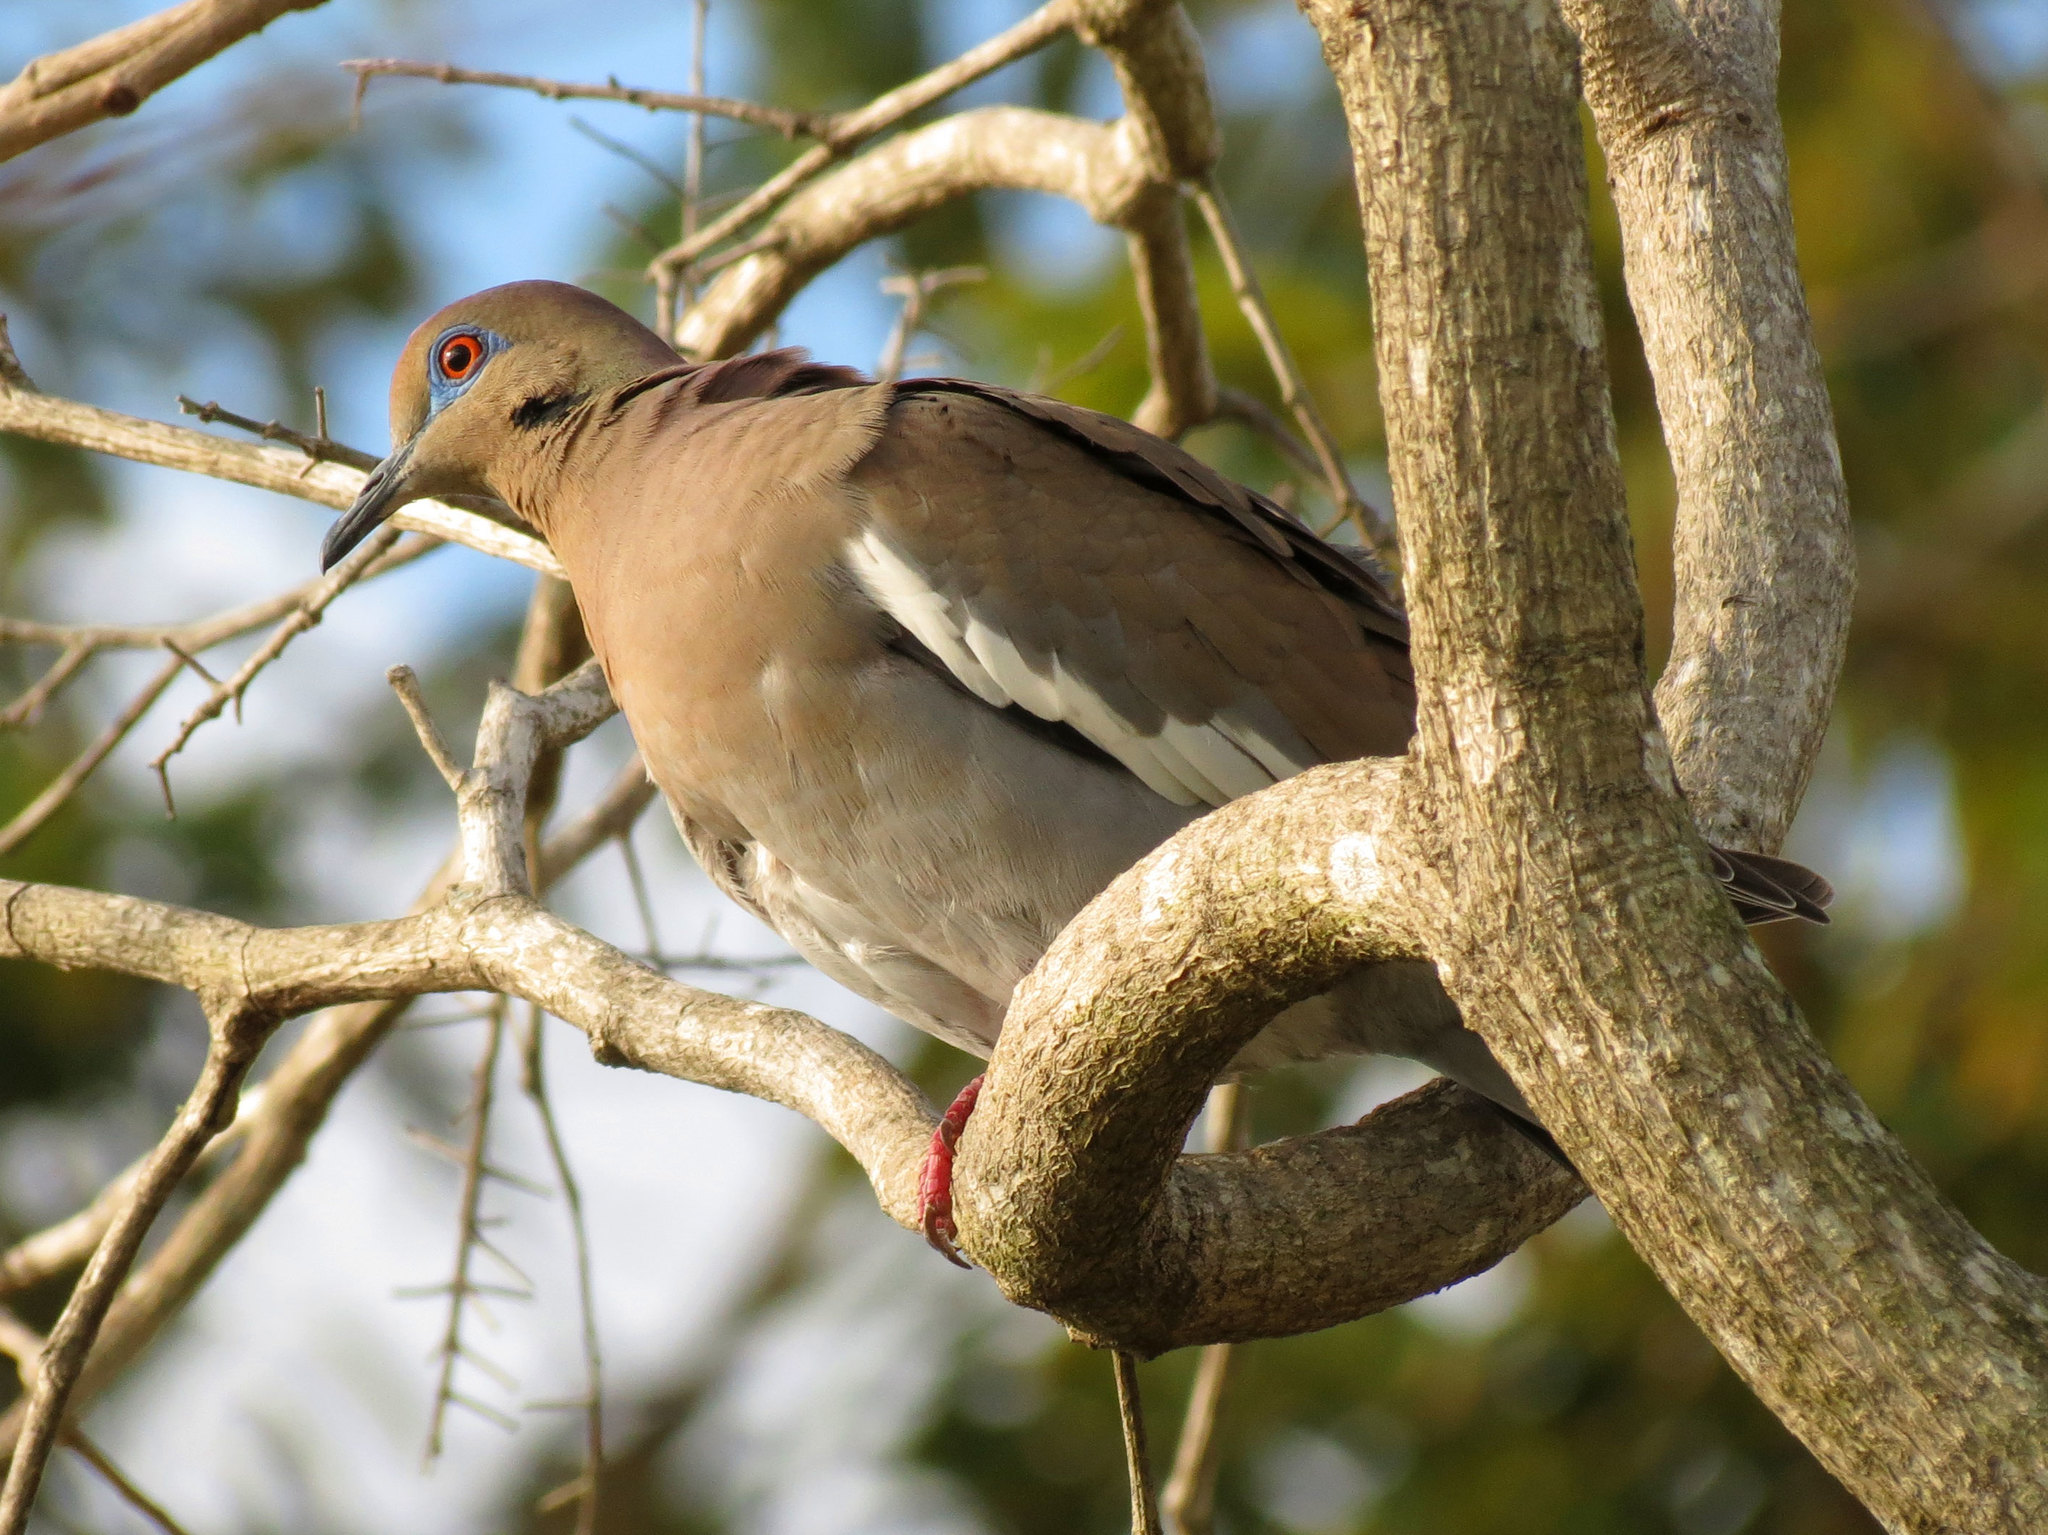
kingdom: Animalia
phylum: Chordata
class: Aves
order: Columbiformes
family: Columbidae
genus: Zenaida
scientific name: Zenaida asiatica
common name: White-winged dove
